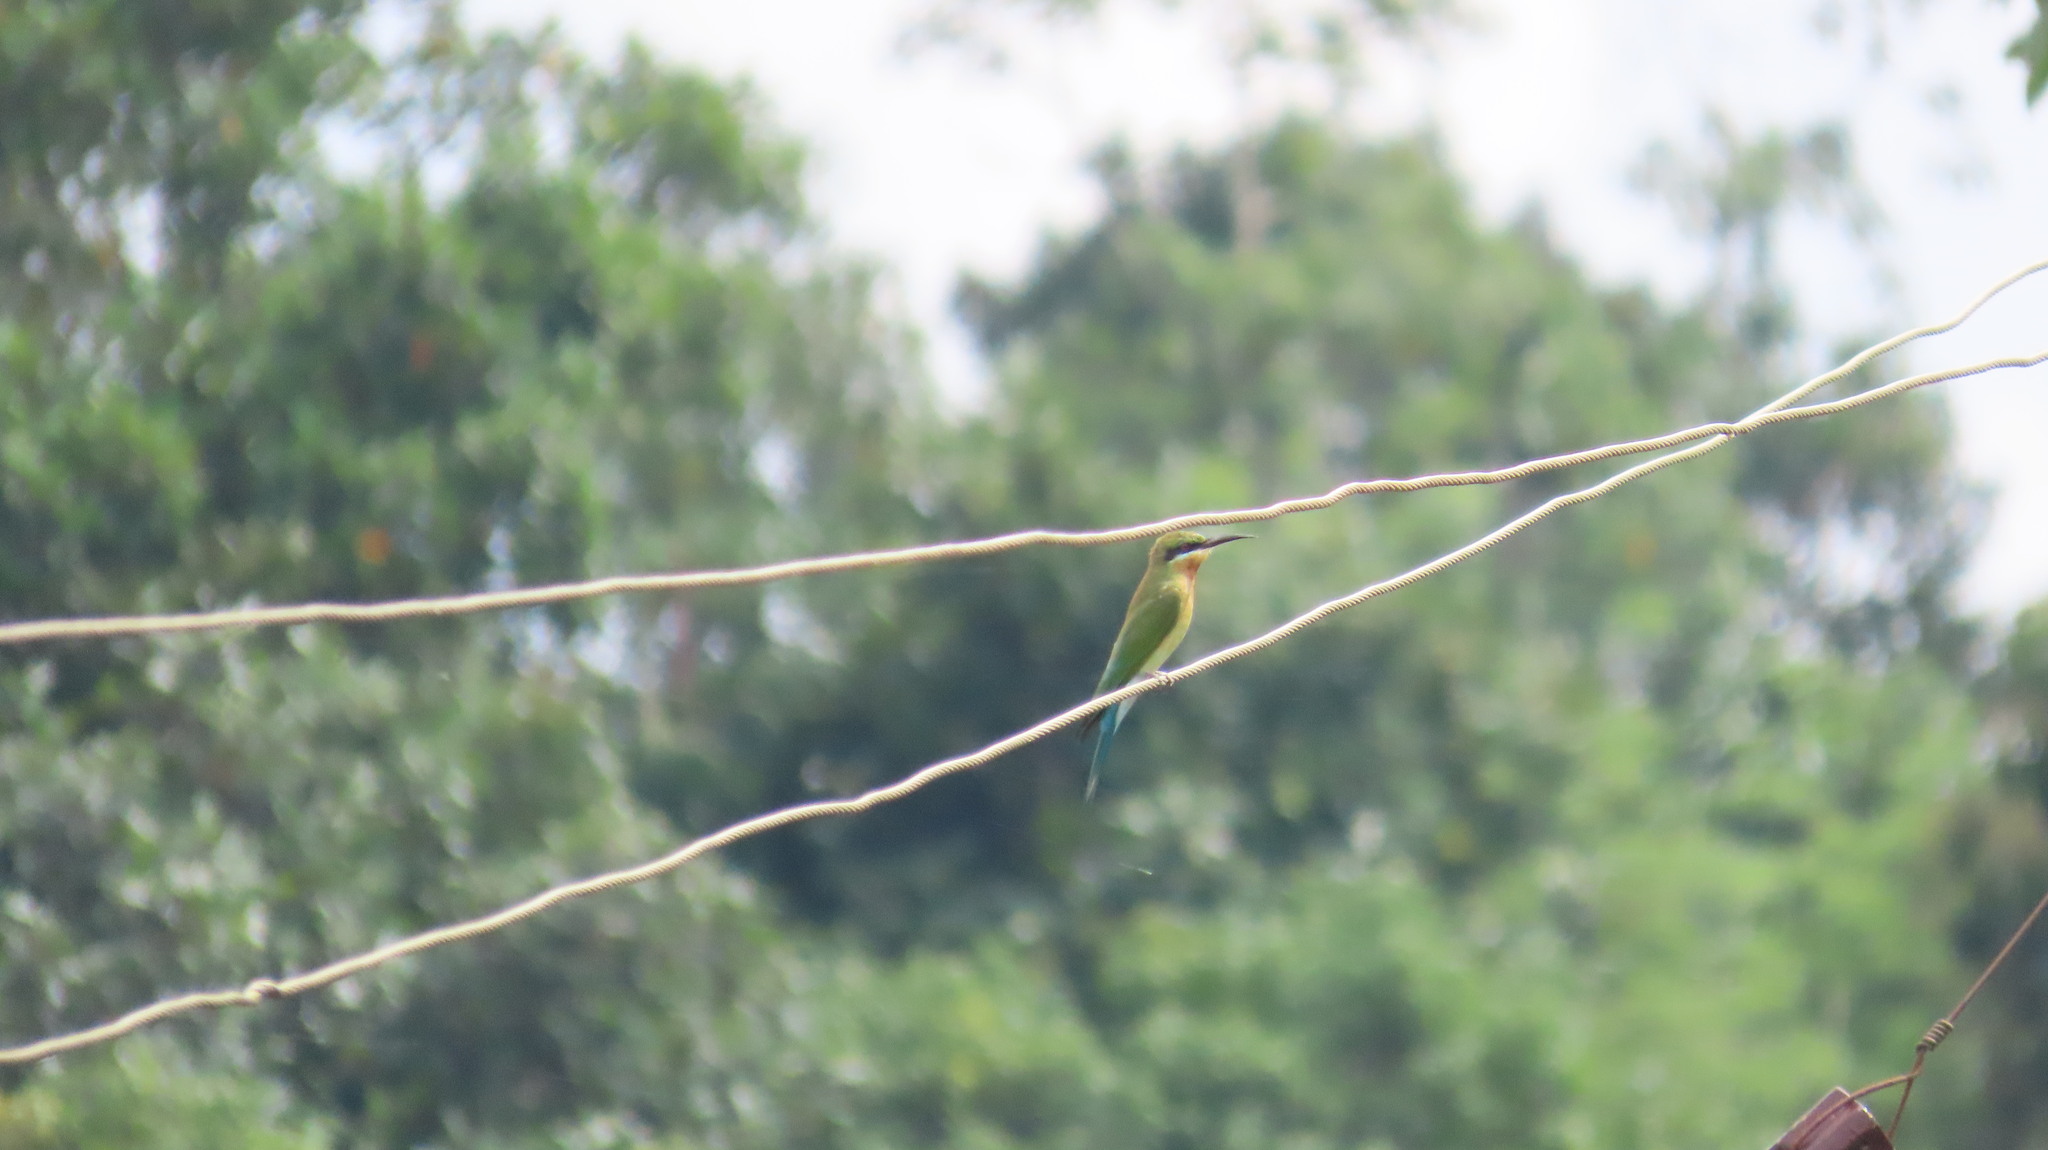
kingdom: Animalia
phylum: Chordata
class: Aves
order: Coraciiformes
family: Meropidae
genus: Merops
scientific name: Merops philippinus
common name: Blue-tailed bee-eater
